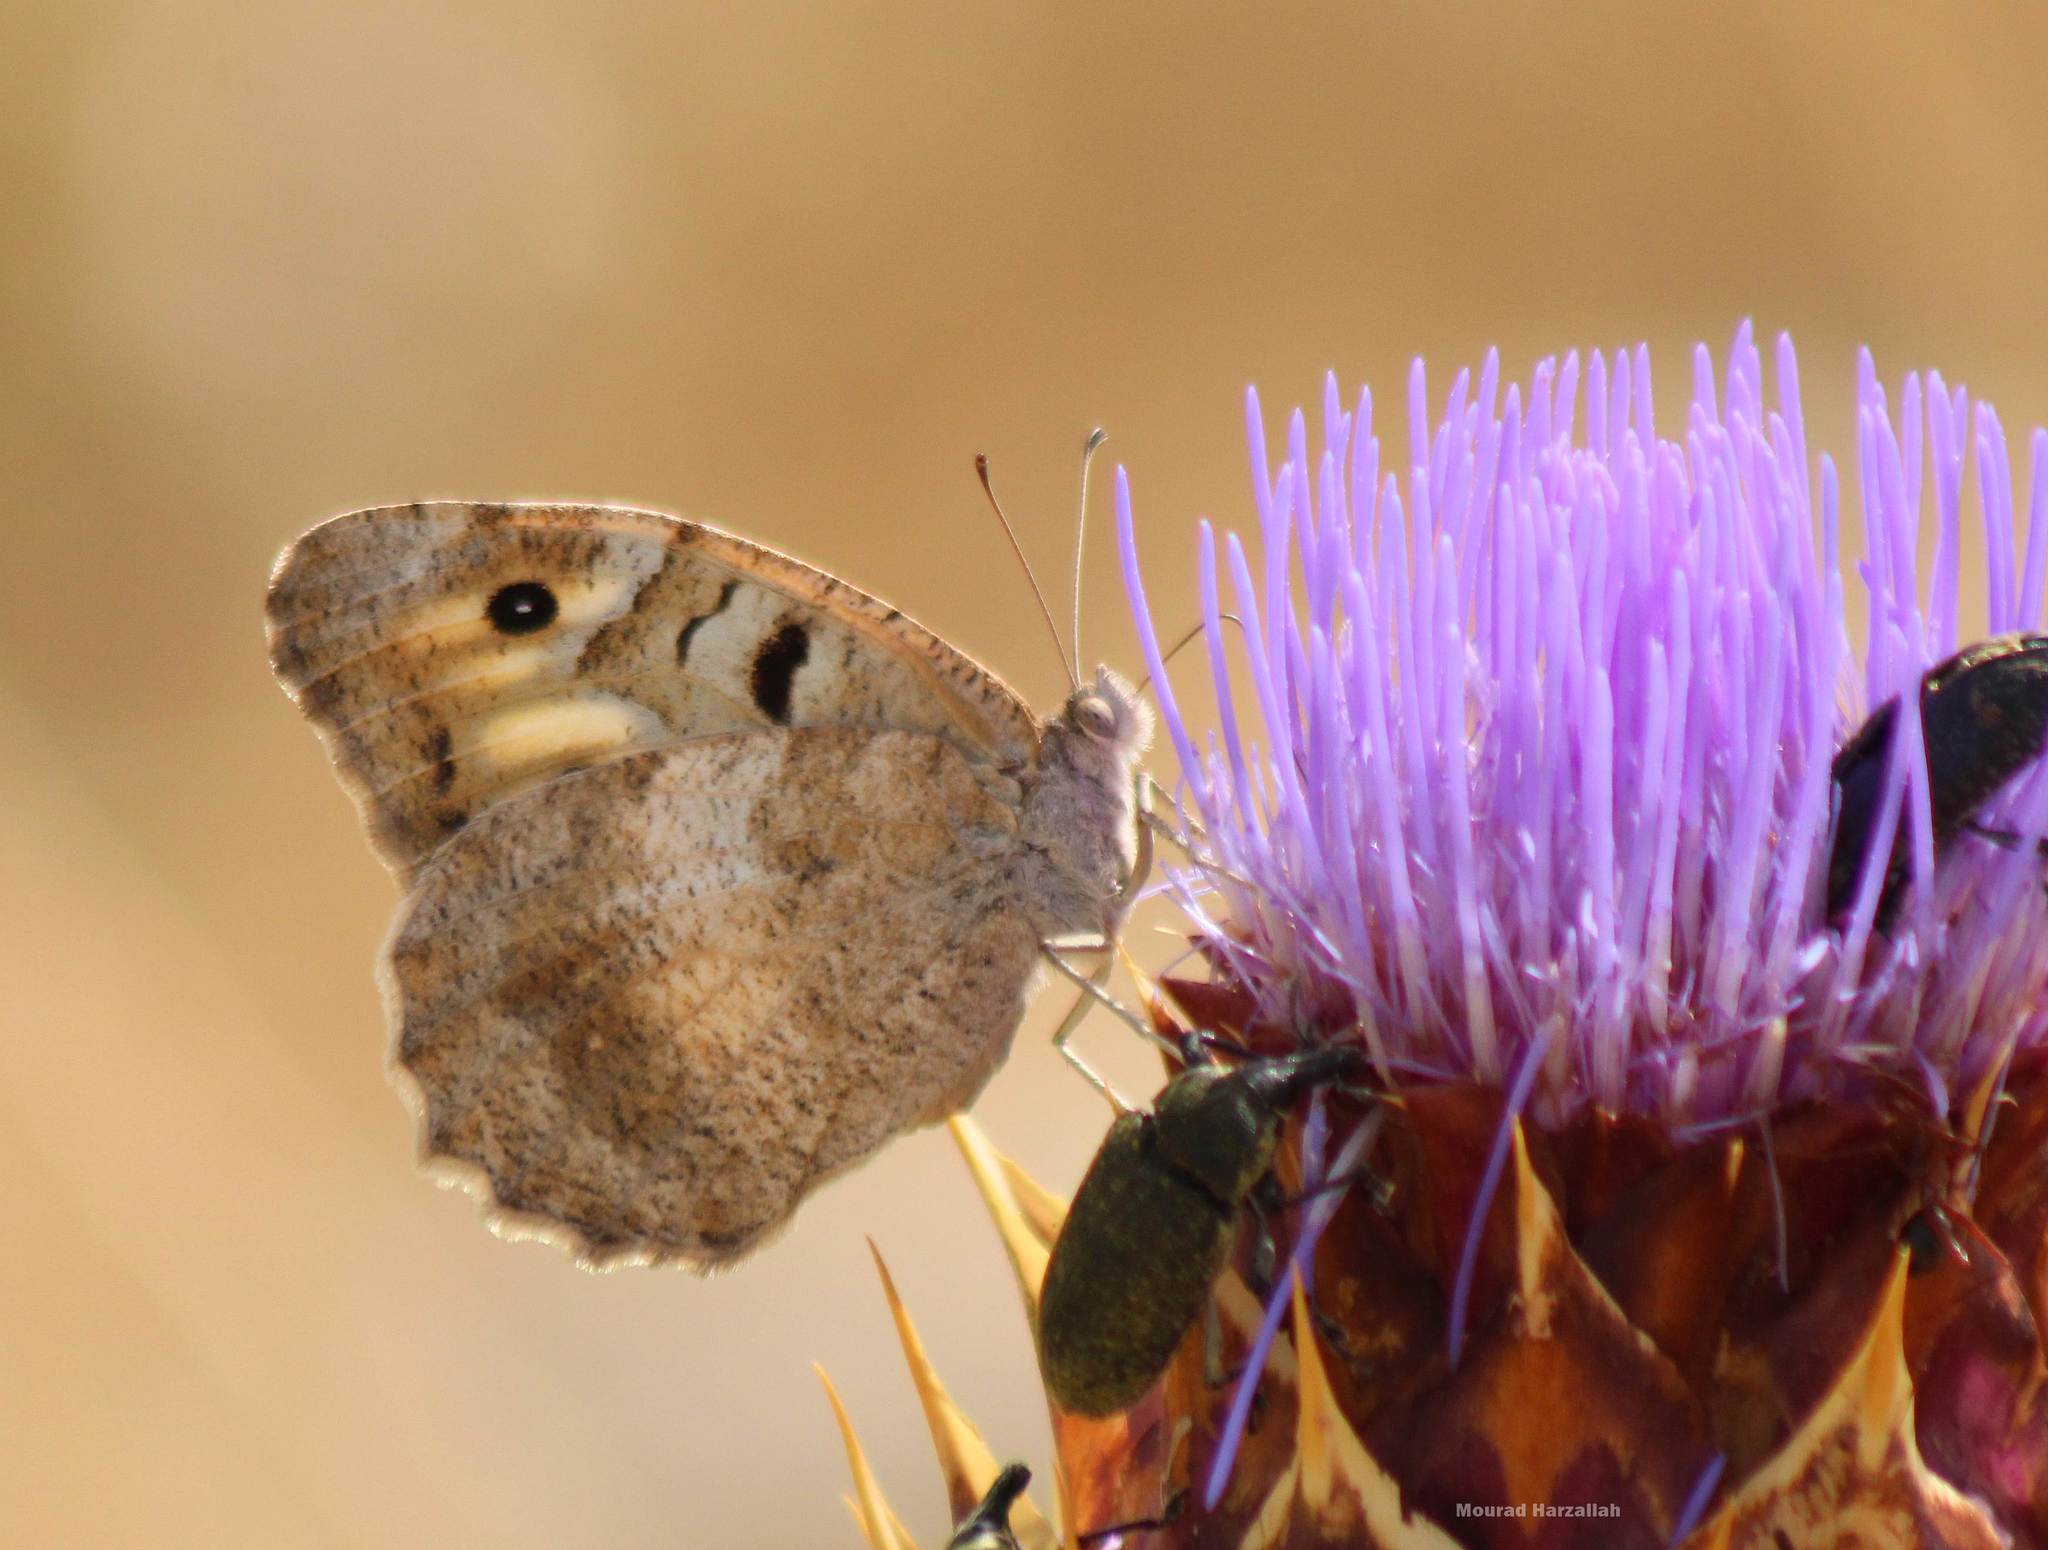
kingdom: Animalia
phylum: Arthropoda
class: Insecta
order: Lepidoptera
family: Nymphalidae
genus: Satyrus
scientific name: Satyrus briseis
